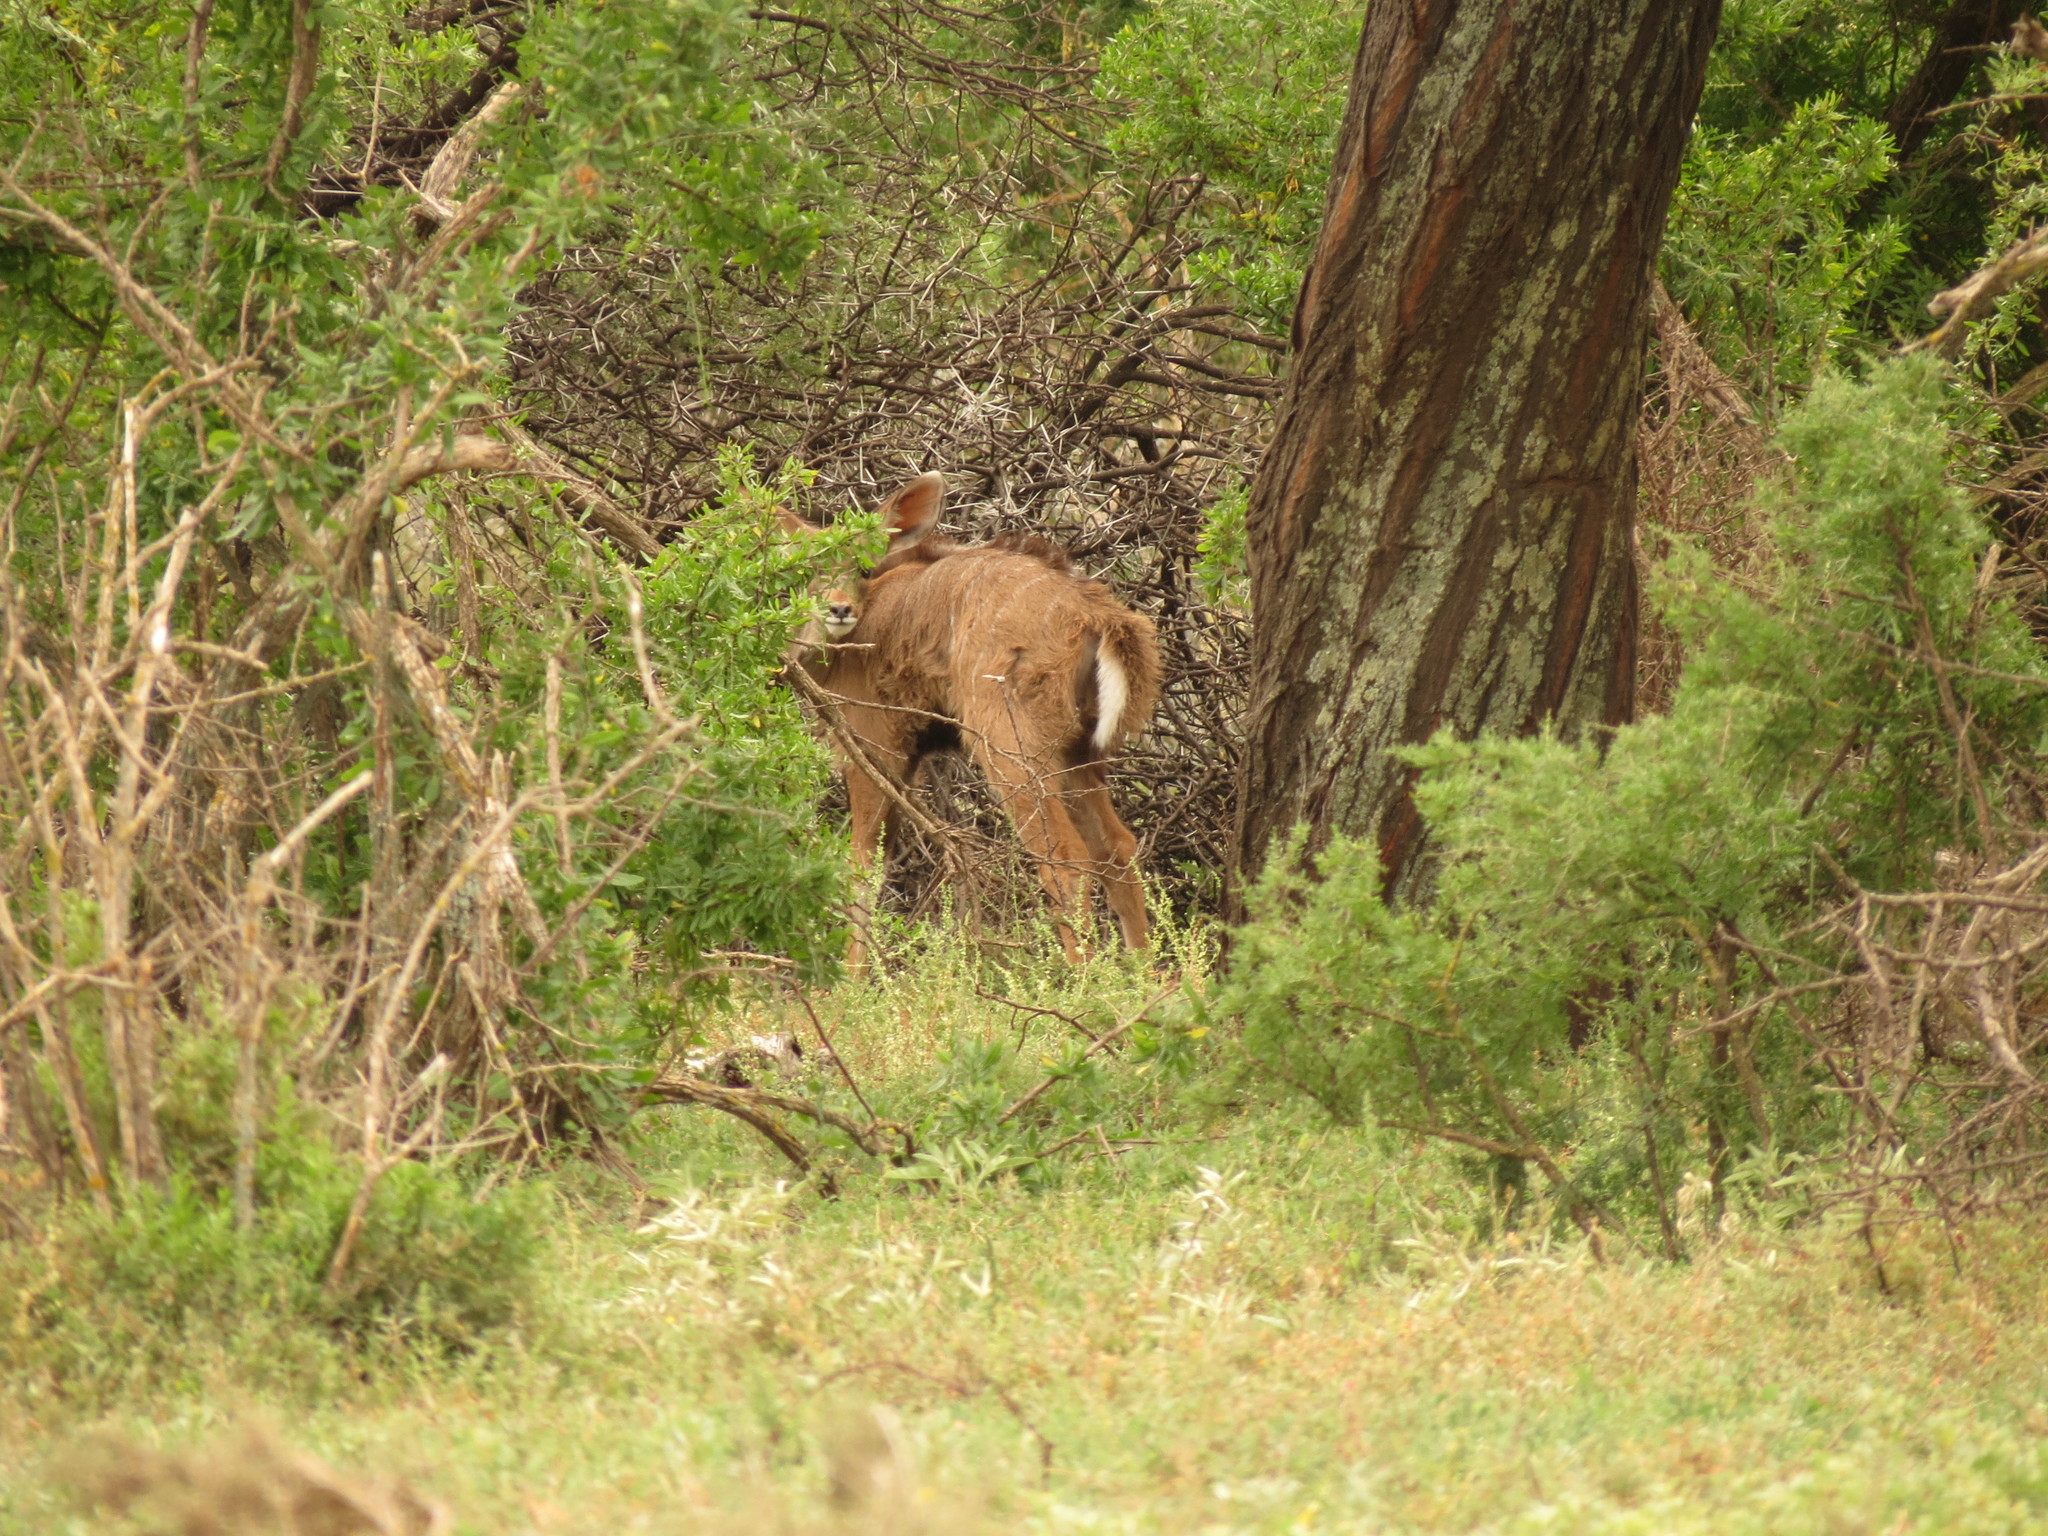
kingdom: Animalia
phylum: Chordata
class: Mammalia
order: Artiodactyla
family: Bovidae
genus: Tragelaphus
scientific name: Tragelaphus strepsiceros
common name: Greater kudu
